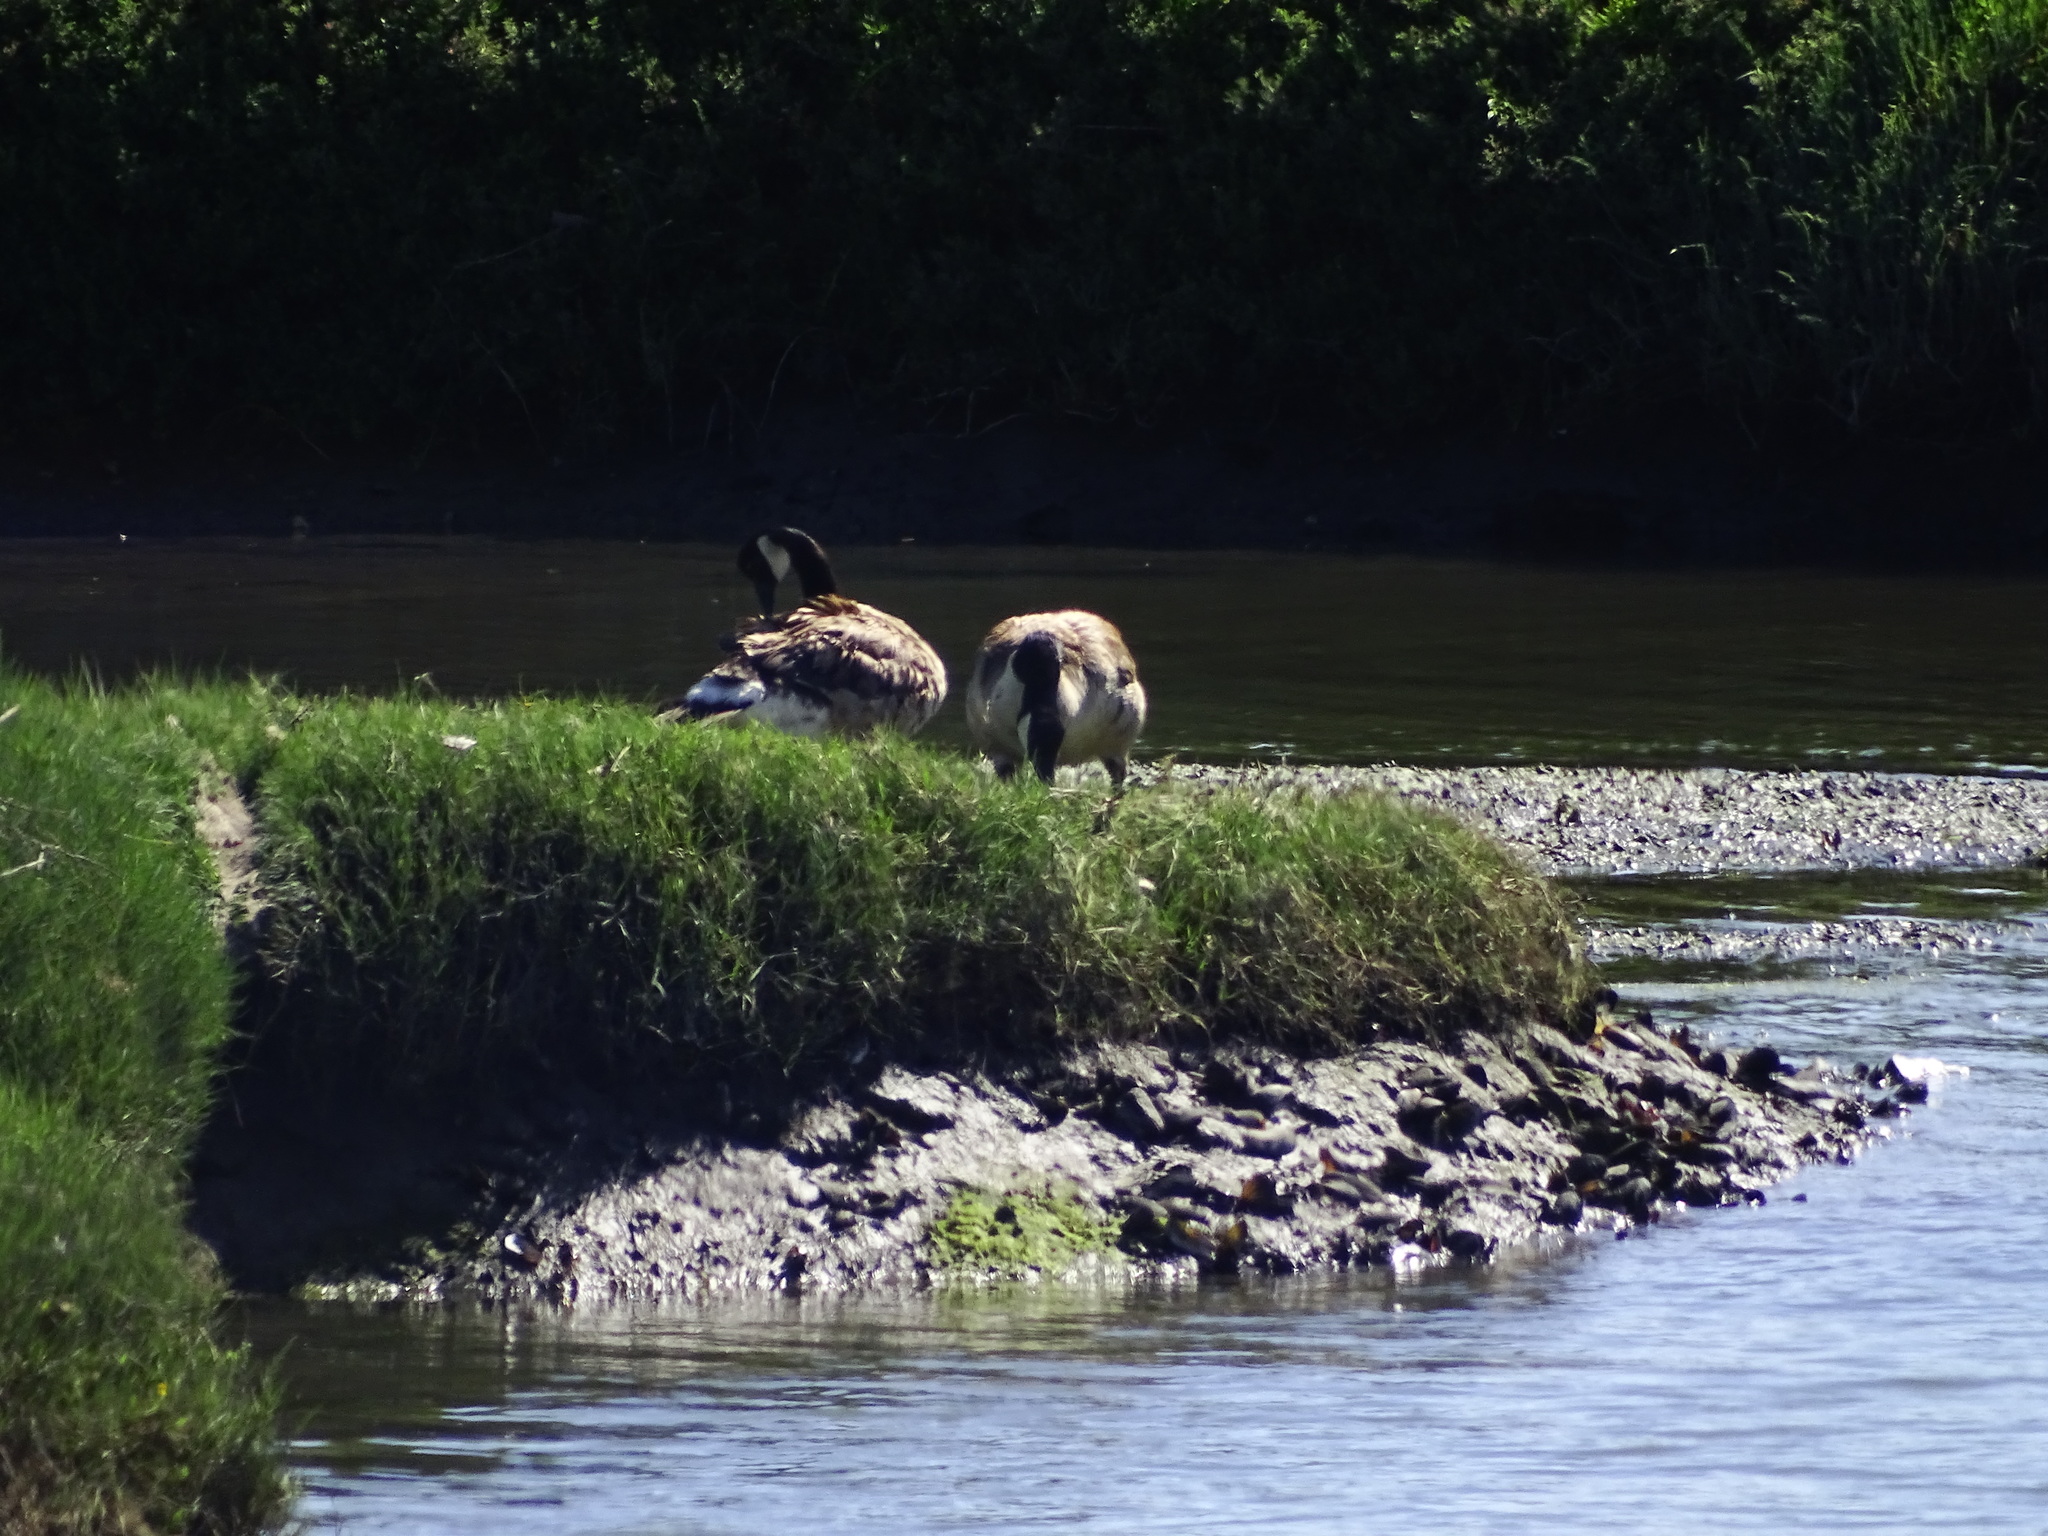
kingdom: Animalia
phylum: Chordata
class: Aves
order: Anseriformes
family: Anatidae
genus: Branta
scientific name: Branta canadensis
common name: Canada goose
